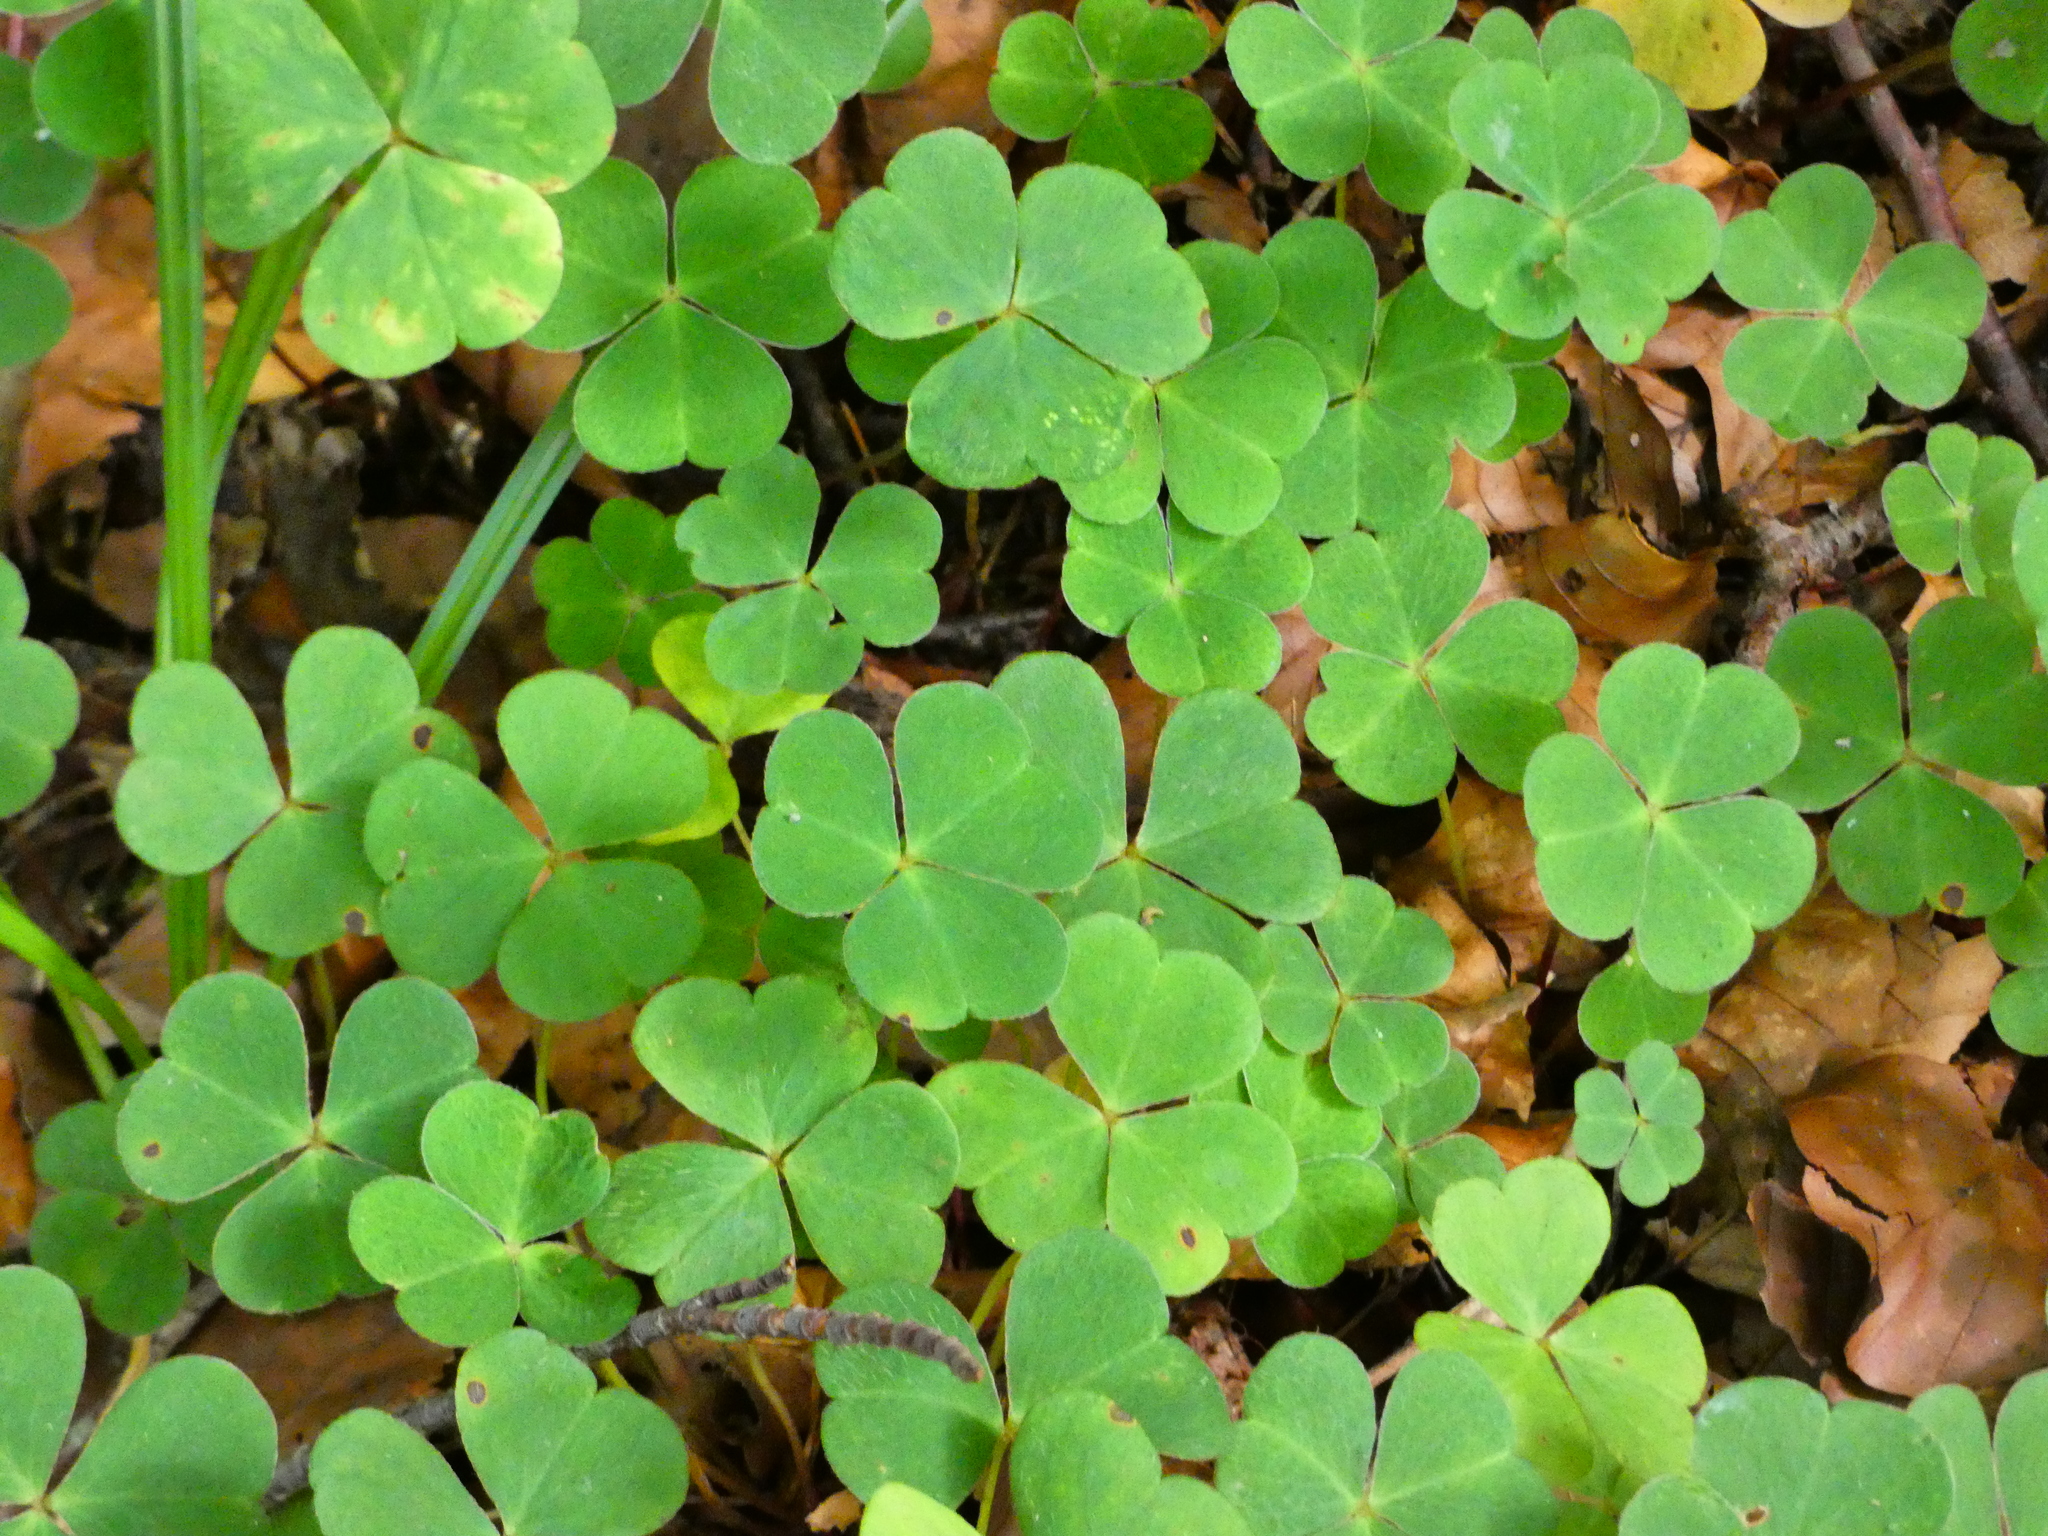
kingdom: Plantae
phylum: Tracheophyta
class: Magnoliopsida
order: Oxalidales
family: Oxalidaceae
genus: Oxalis
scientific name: Oxalis acetosella
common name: Wood-sorrel
